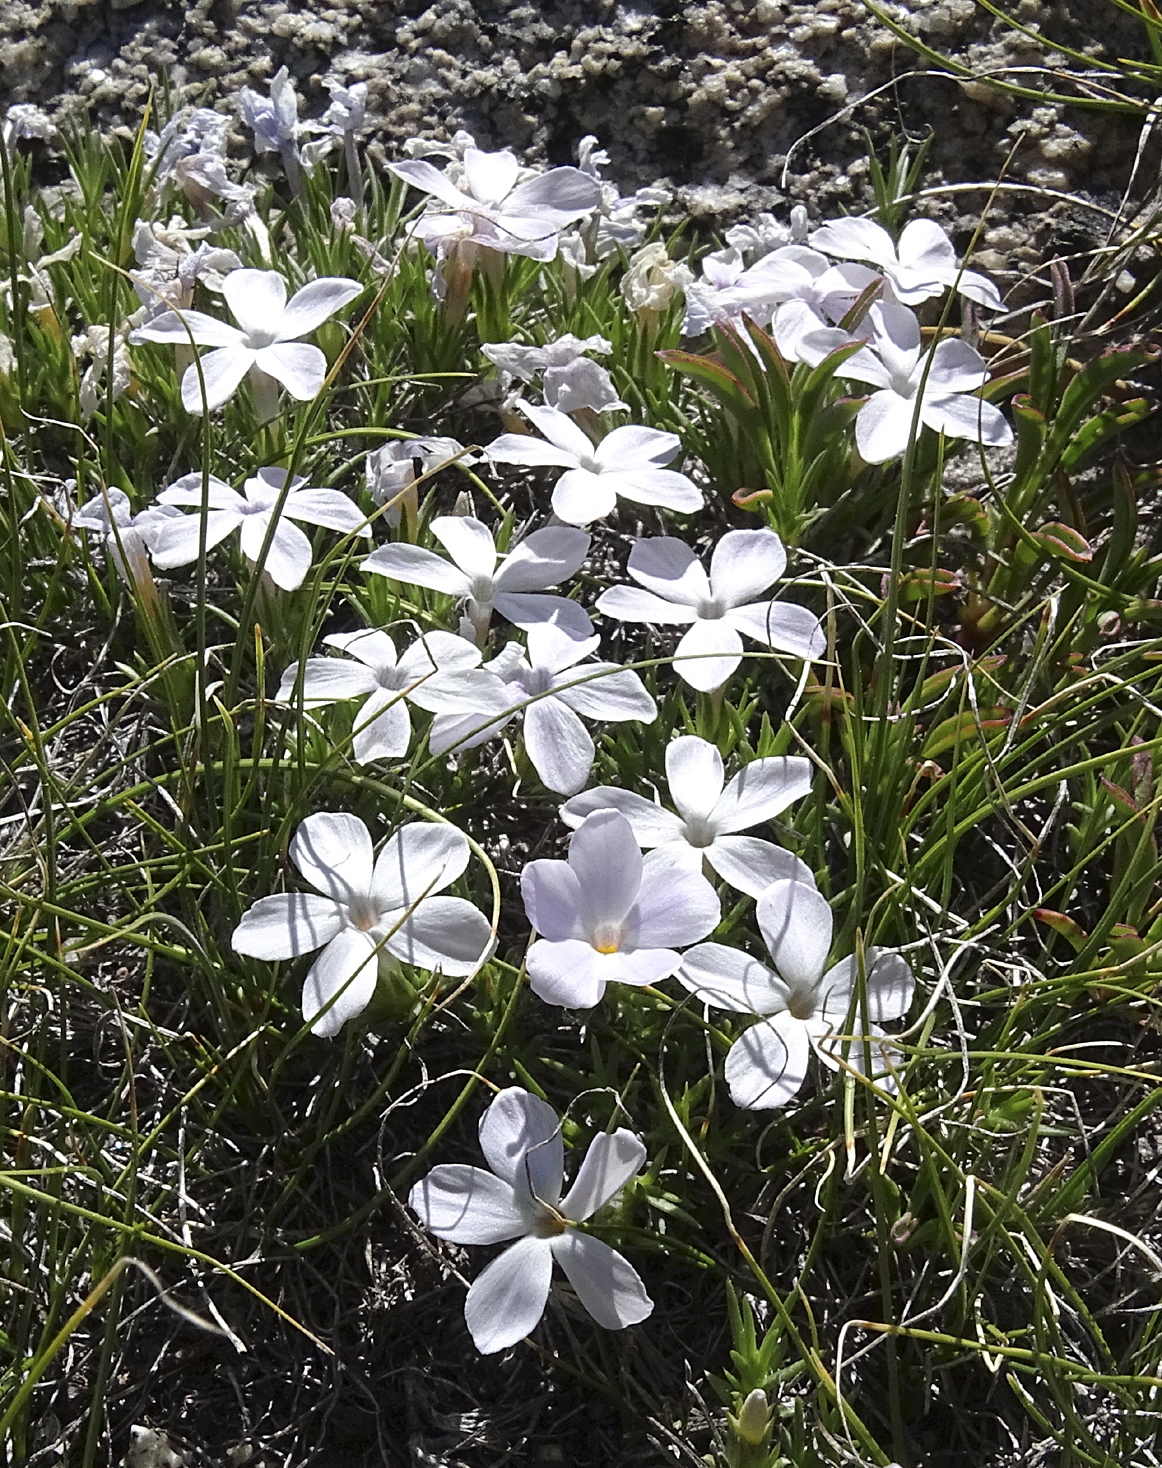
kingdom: Plantae
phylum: Tracheophyta
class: Magnoliopsida
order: Ericales
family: Polemoniaceae
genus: Phlox
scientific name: Phlox diffusa
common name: Mat phlox
